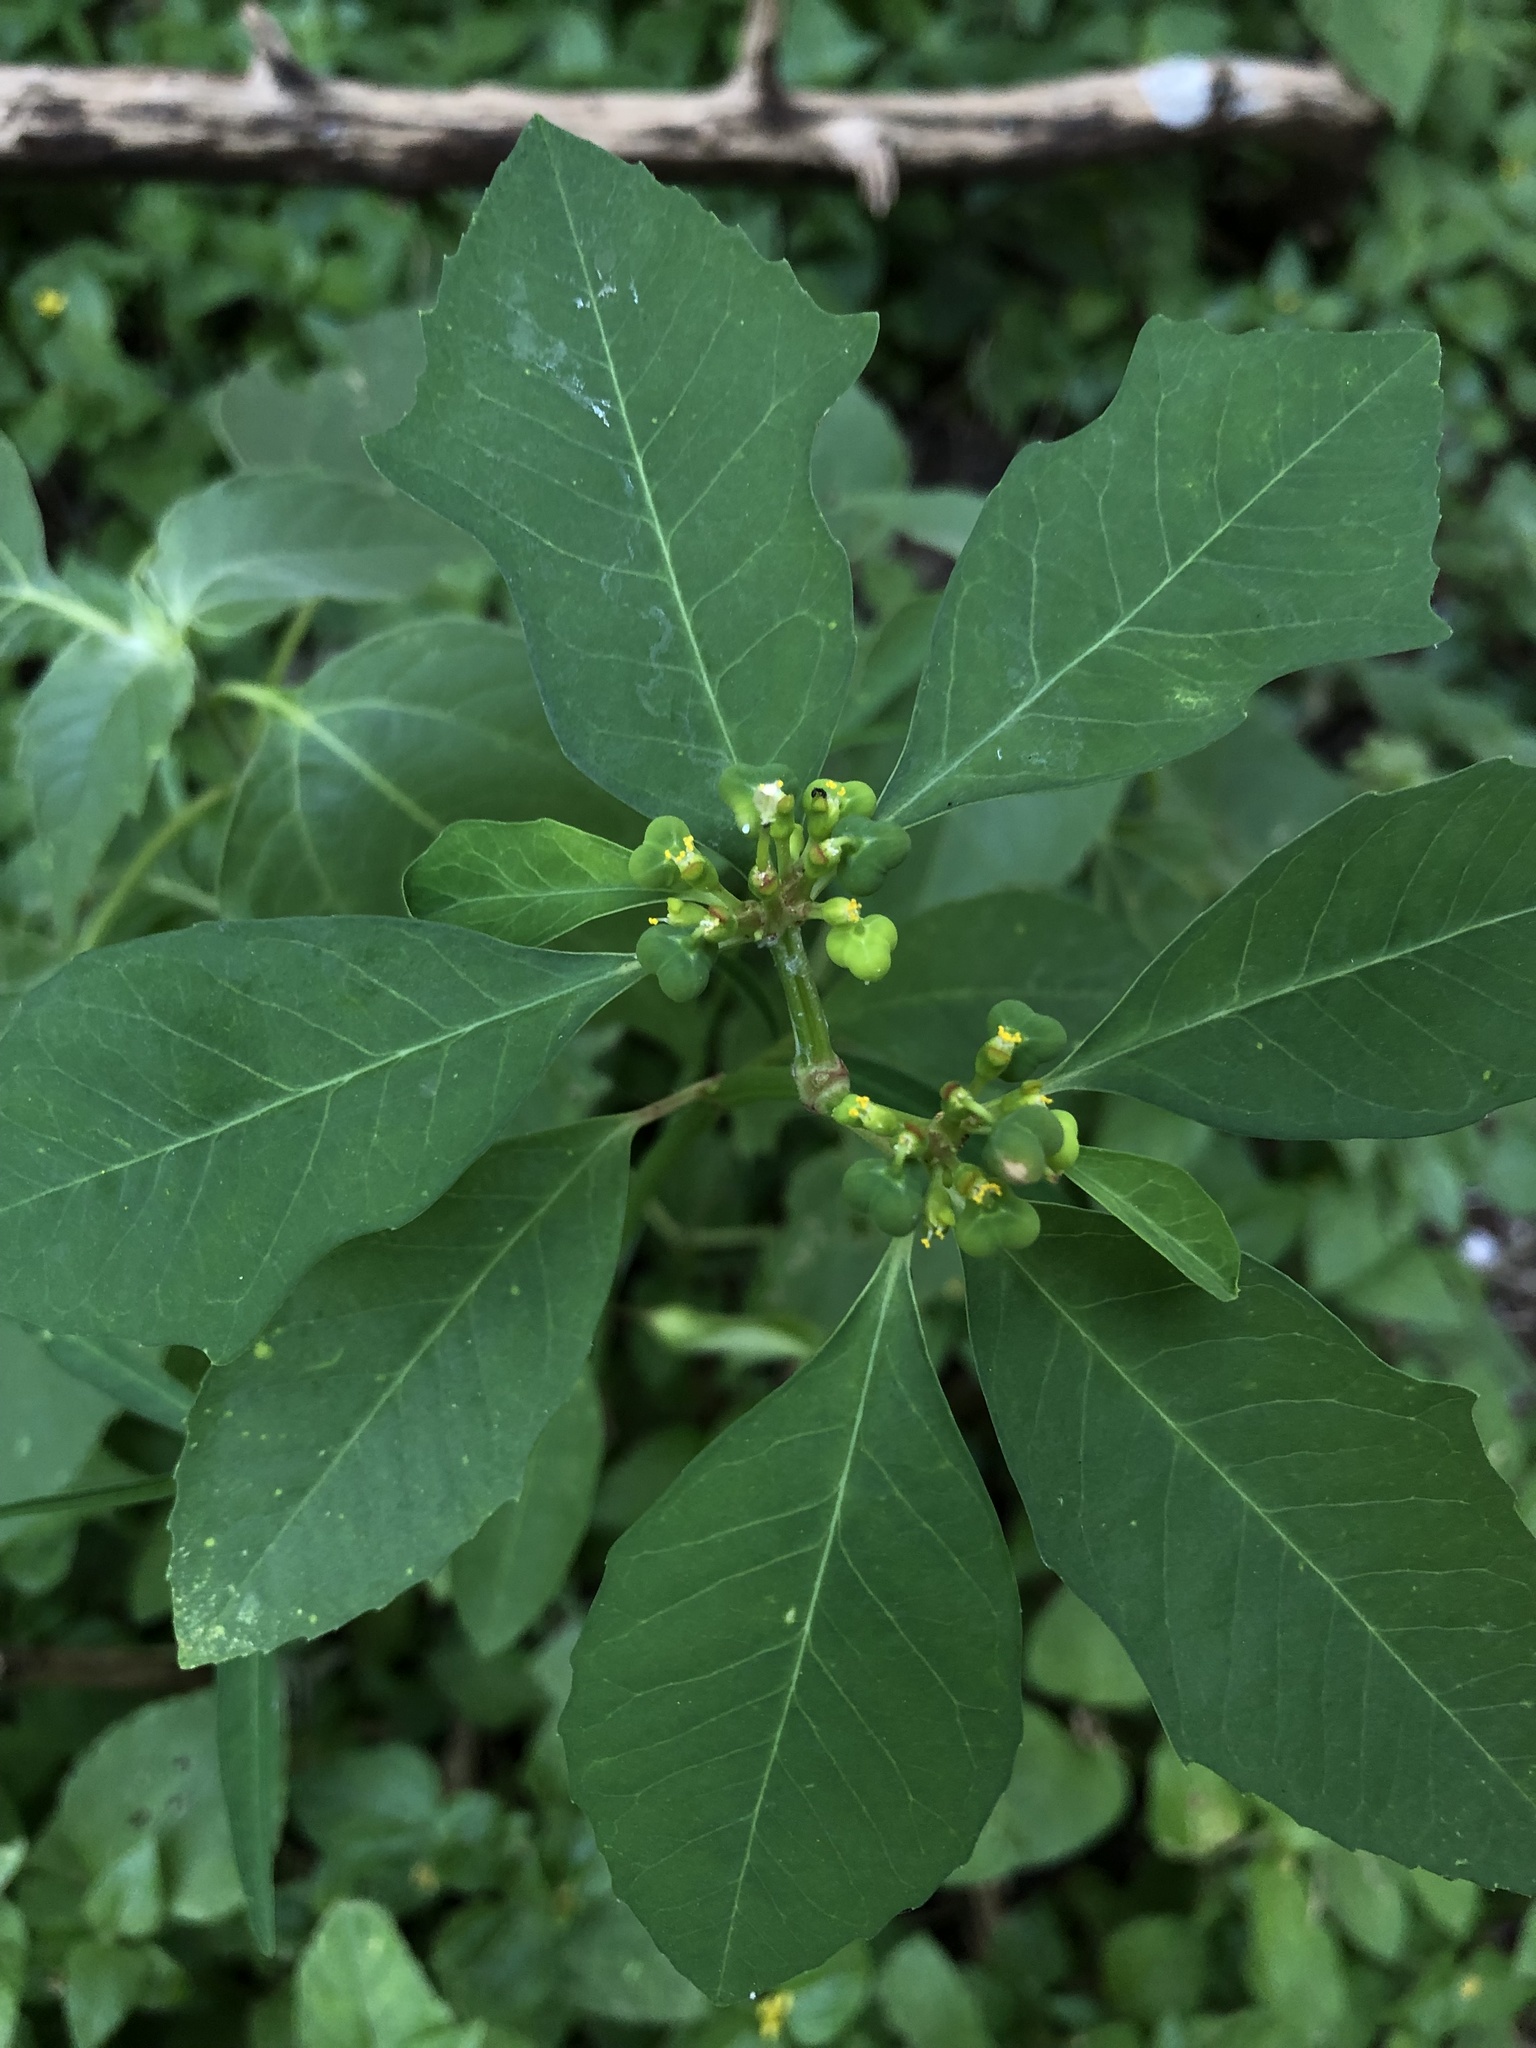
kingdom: Plantae
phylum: Tracheophyta
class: Magnoliopsida
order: Malpighiales
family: Euphorbiaceae
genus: Euphorbia
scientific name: Euphorbia heterophylla
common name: Mexican fireplant
